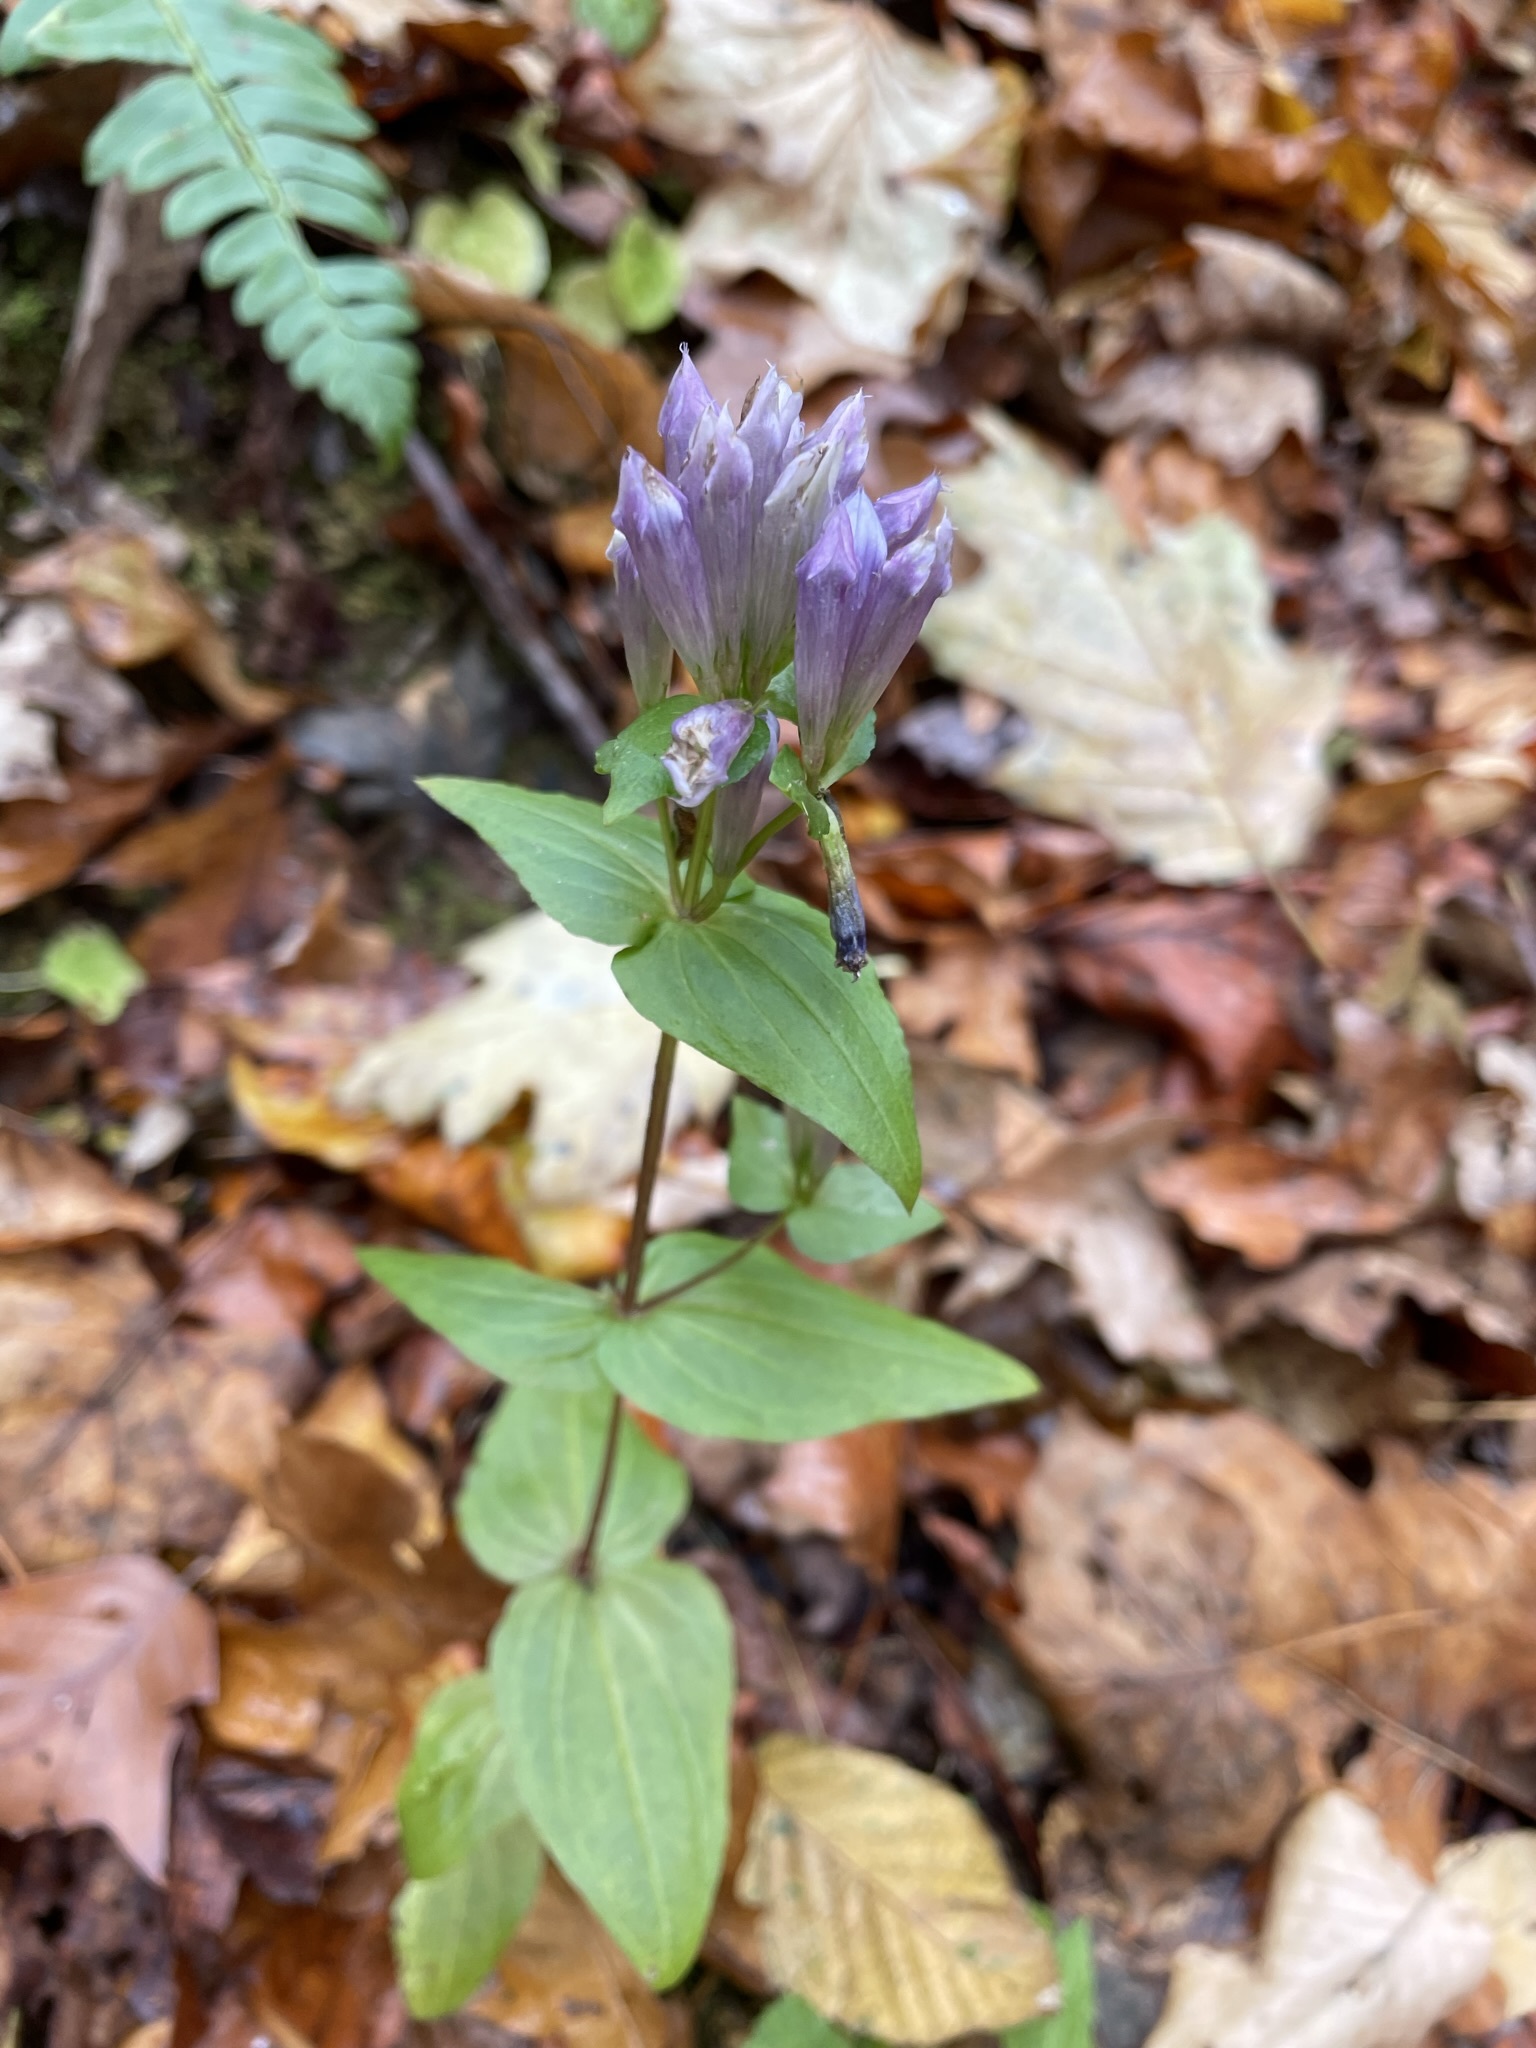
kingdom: Plantae
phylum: Tracheophyta
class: Magnoliopsida
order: Gentianales
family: Gentianaceae
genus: Gentianella
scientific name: Gentianella quinquefolia
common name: Agueweed
